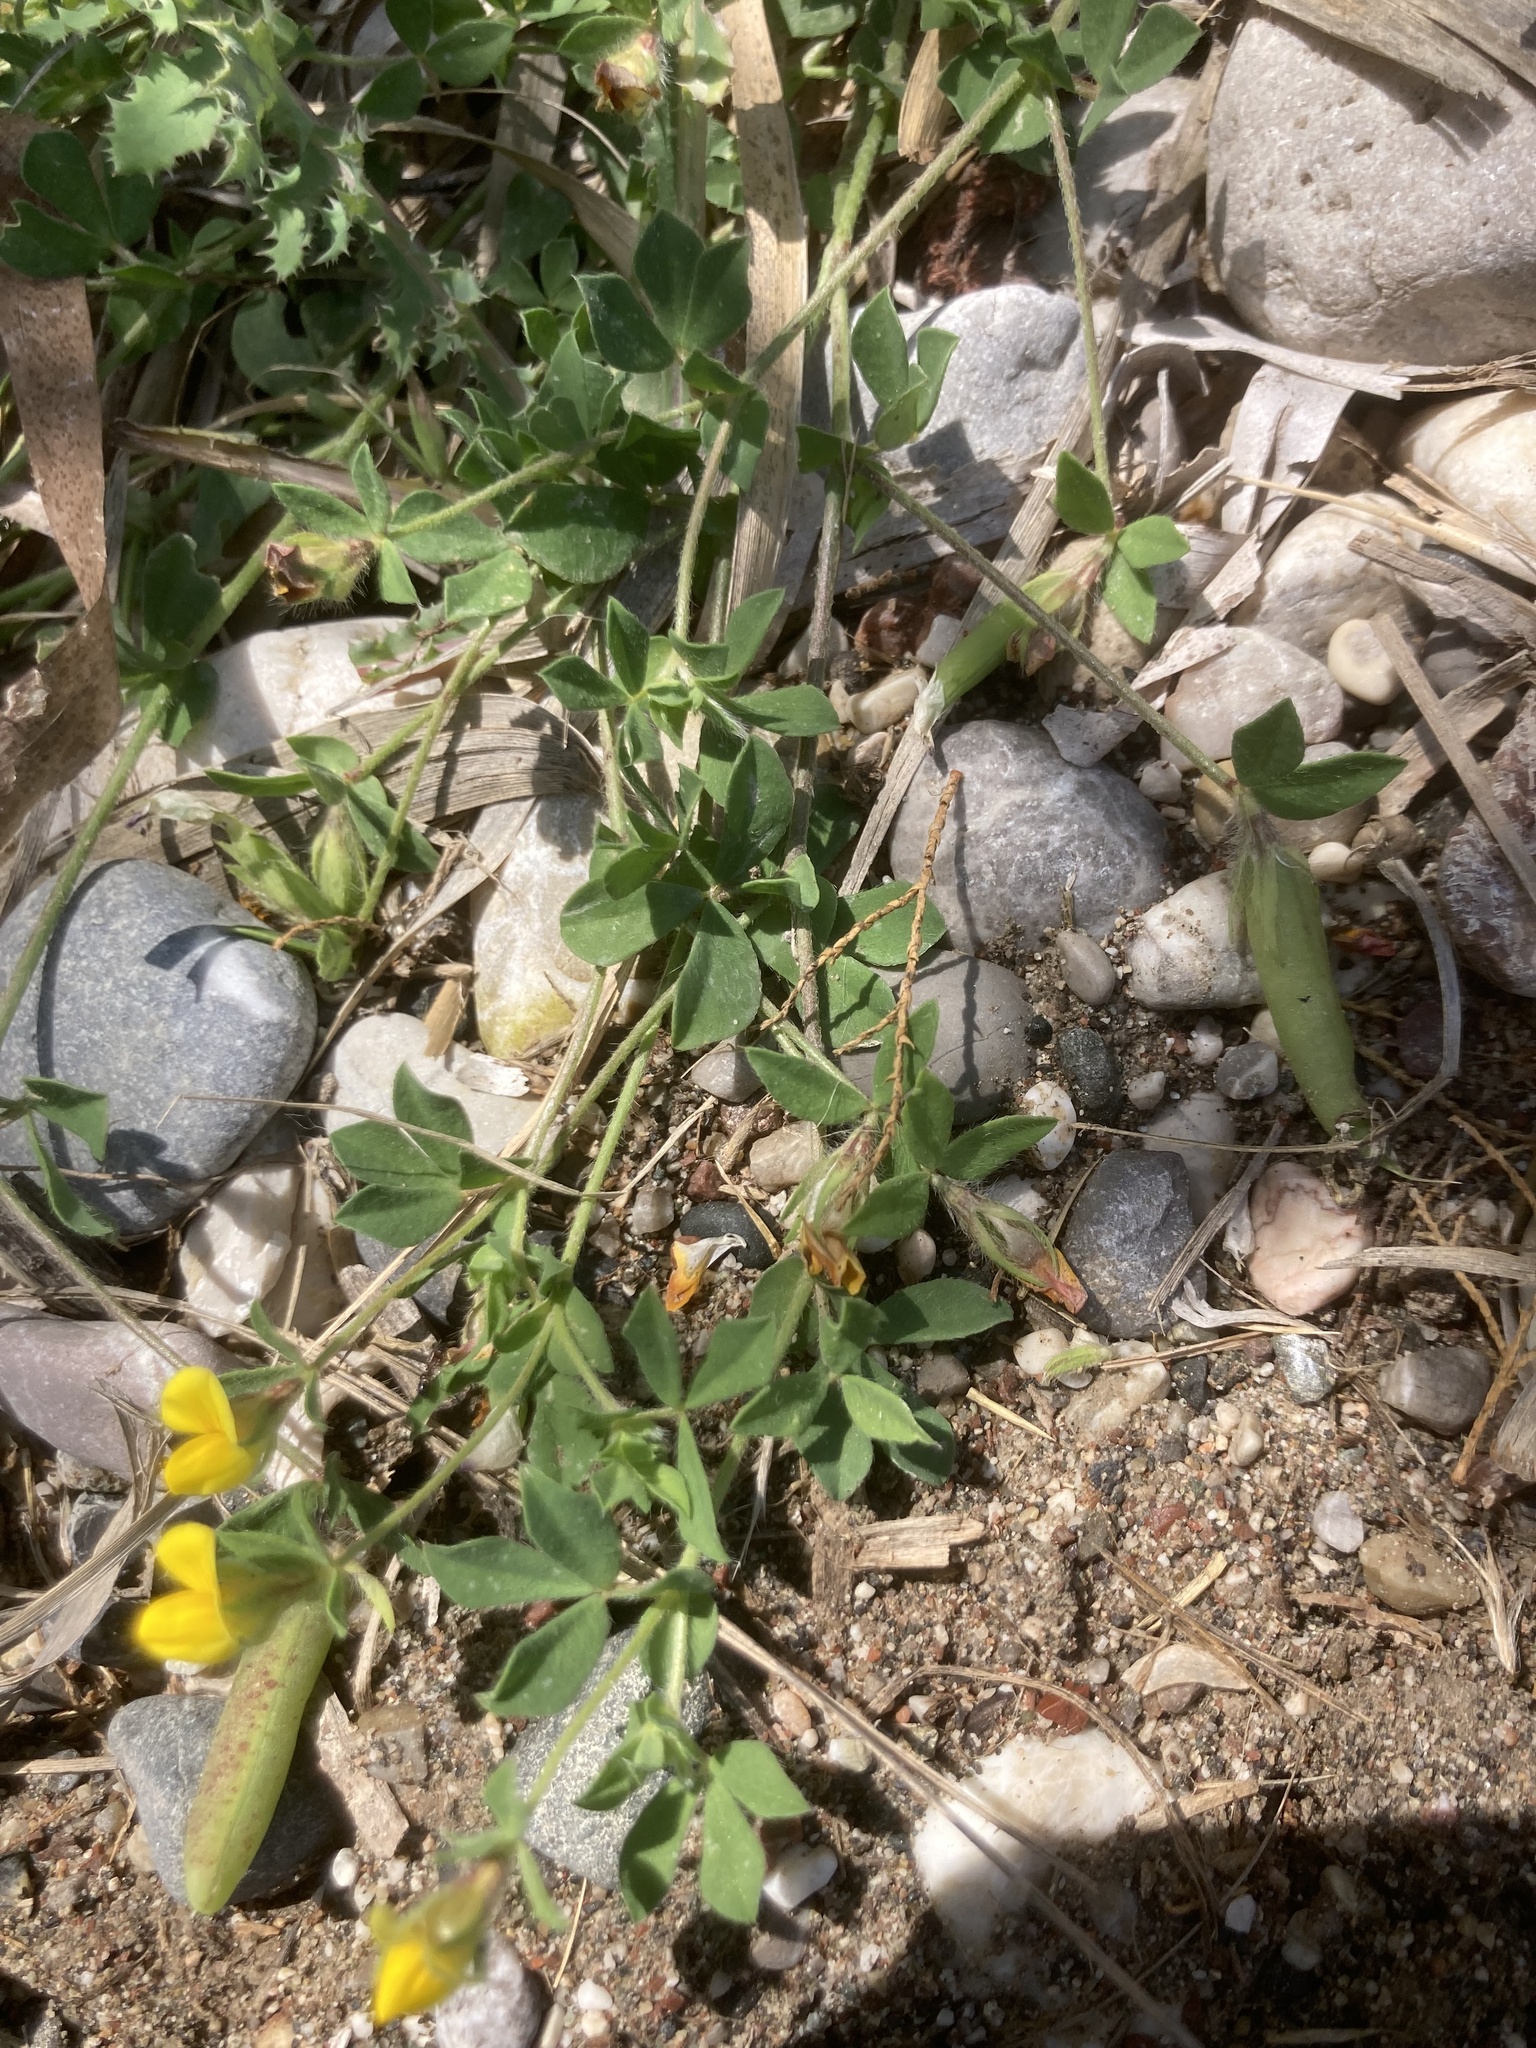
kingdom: Plantae
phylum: Tracheophyta
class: Magnoliopsida
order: Fabales
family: Fabaceae
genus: Lotus
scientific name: Lotus edulis
